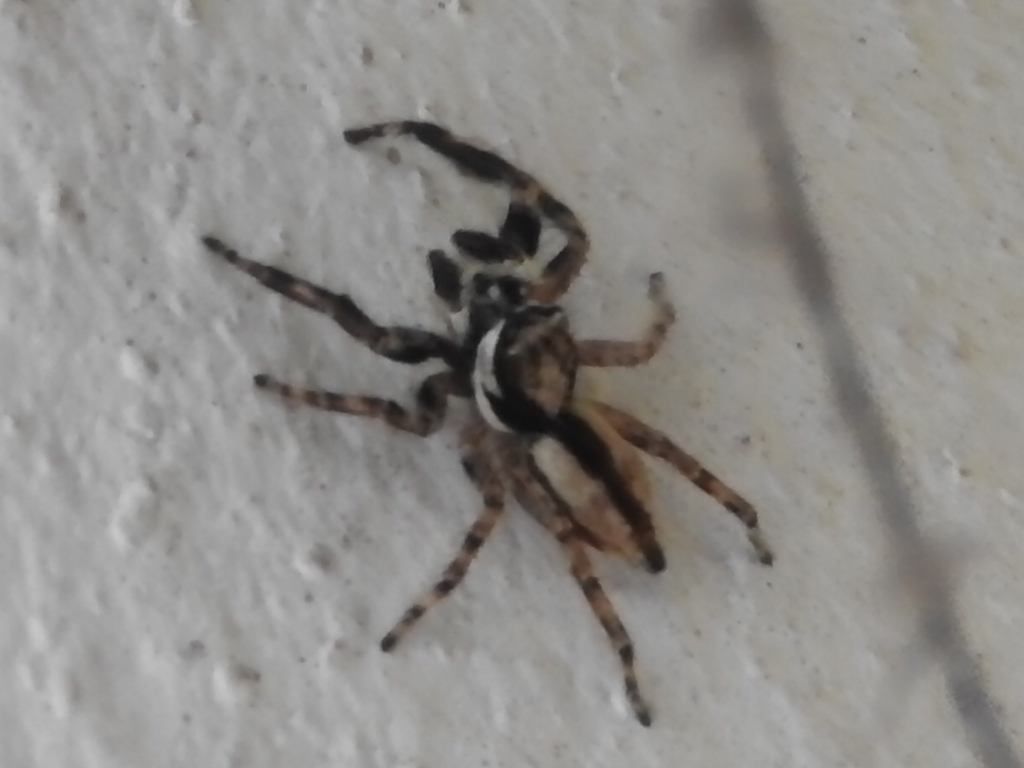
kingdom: Animalia
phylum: Arthropoda
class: Arachnida
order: Araneae
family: Salticidae
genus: Menemerus
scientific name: Menemerus bivittatus
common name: Gray wall jumper
